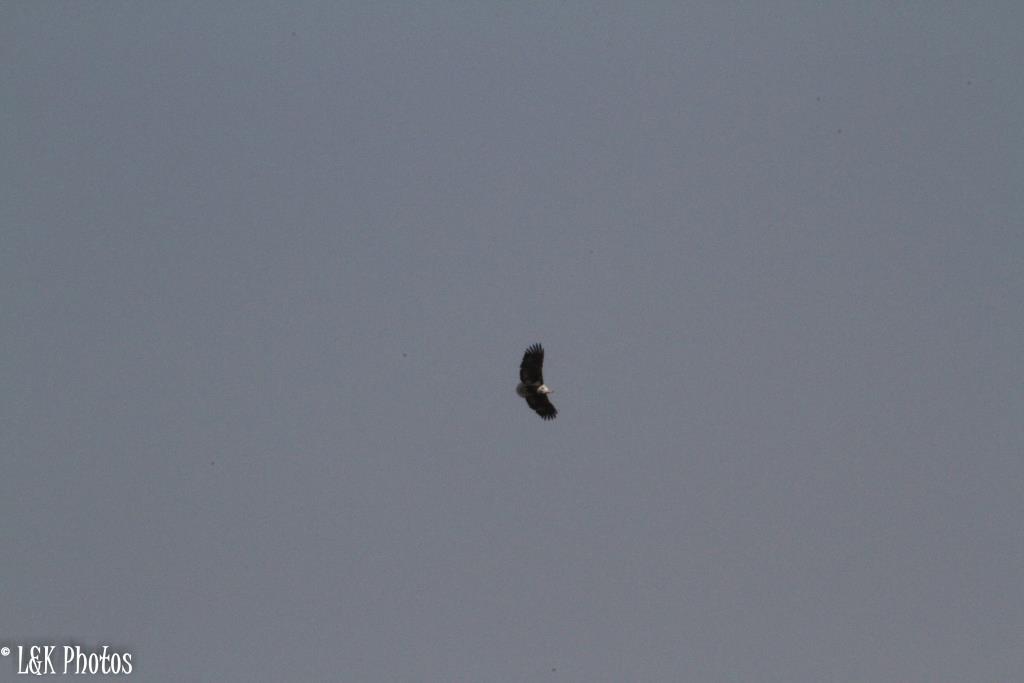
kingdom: Animalia
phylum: Chordata
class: Aves
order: Accipitriformes
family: Accipitridae
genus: Haliaeetus
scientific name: Haliaeetus vocifer
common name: African fish eagle
